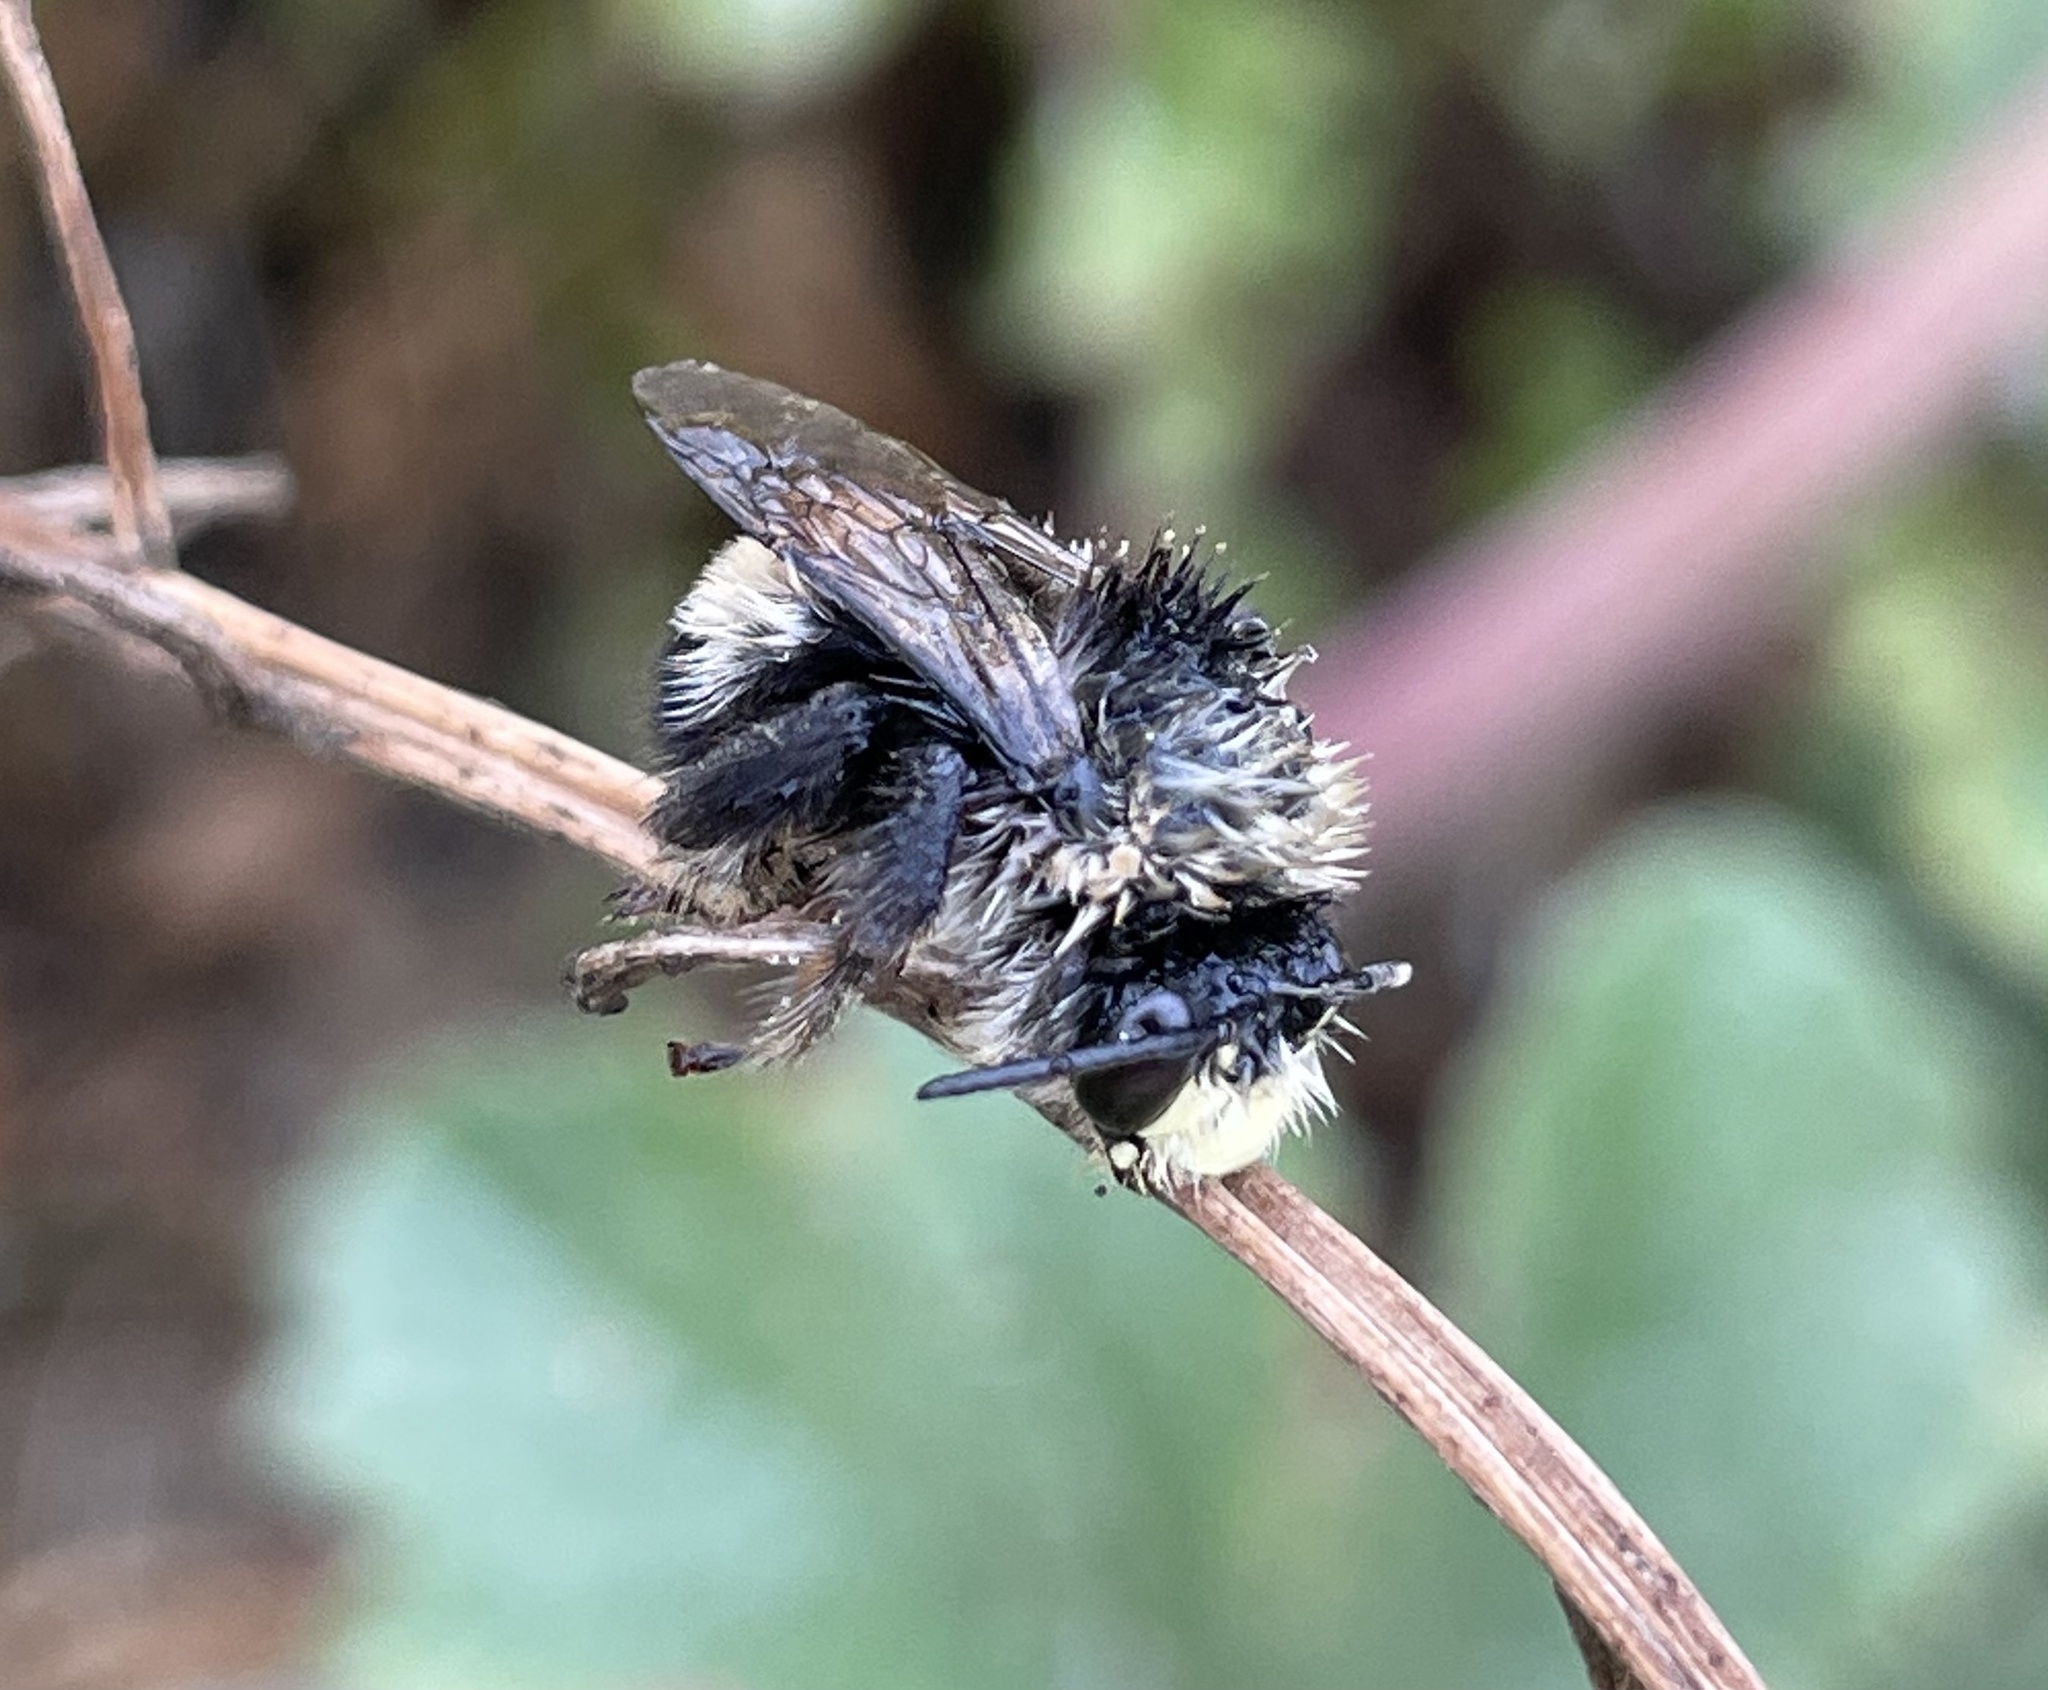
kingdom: Animalia
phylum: Arthropoda
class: Insecta
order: Hymenoptera
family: Apidae
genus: Anthophora
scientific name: Anthophora bomboides
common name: Bumble-bee-mimic digger bee
